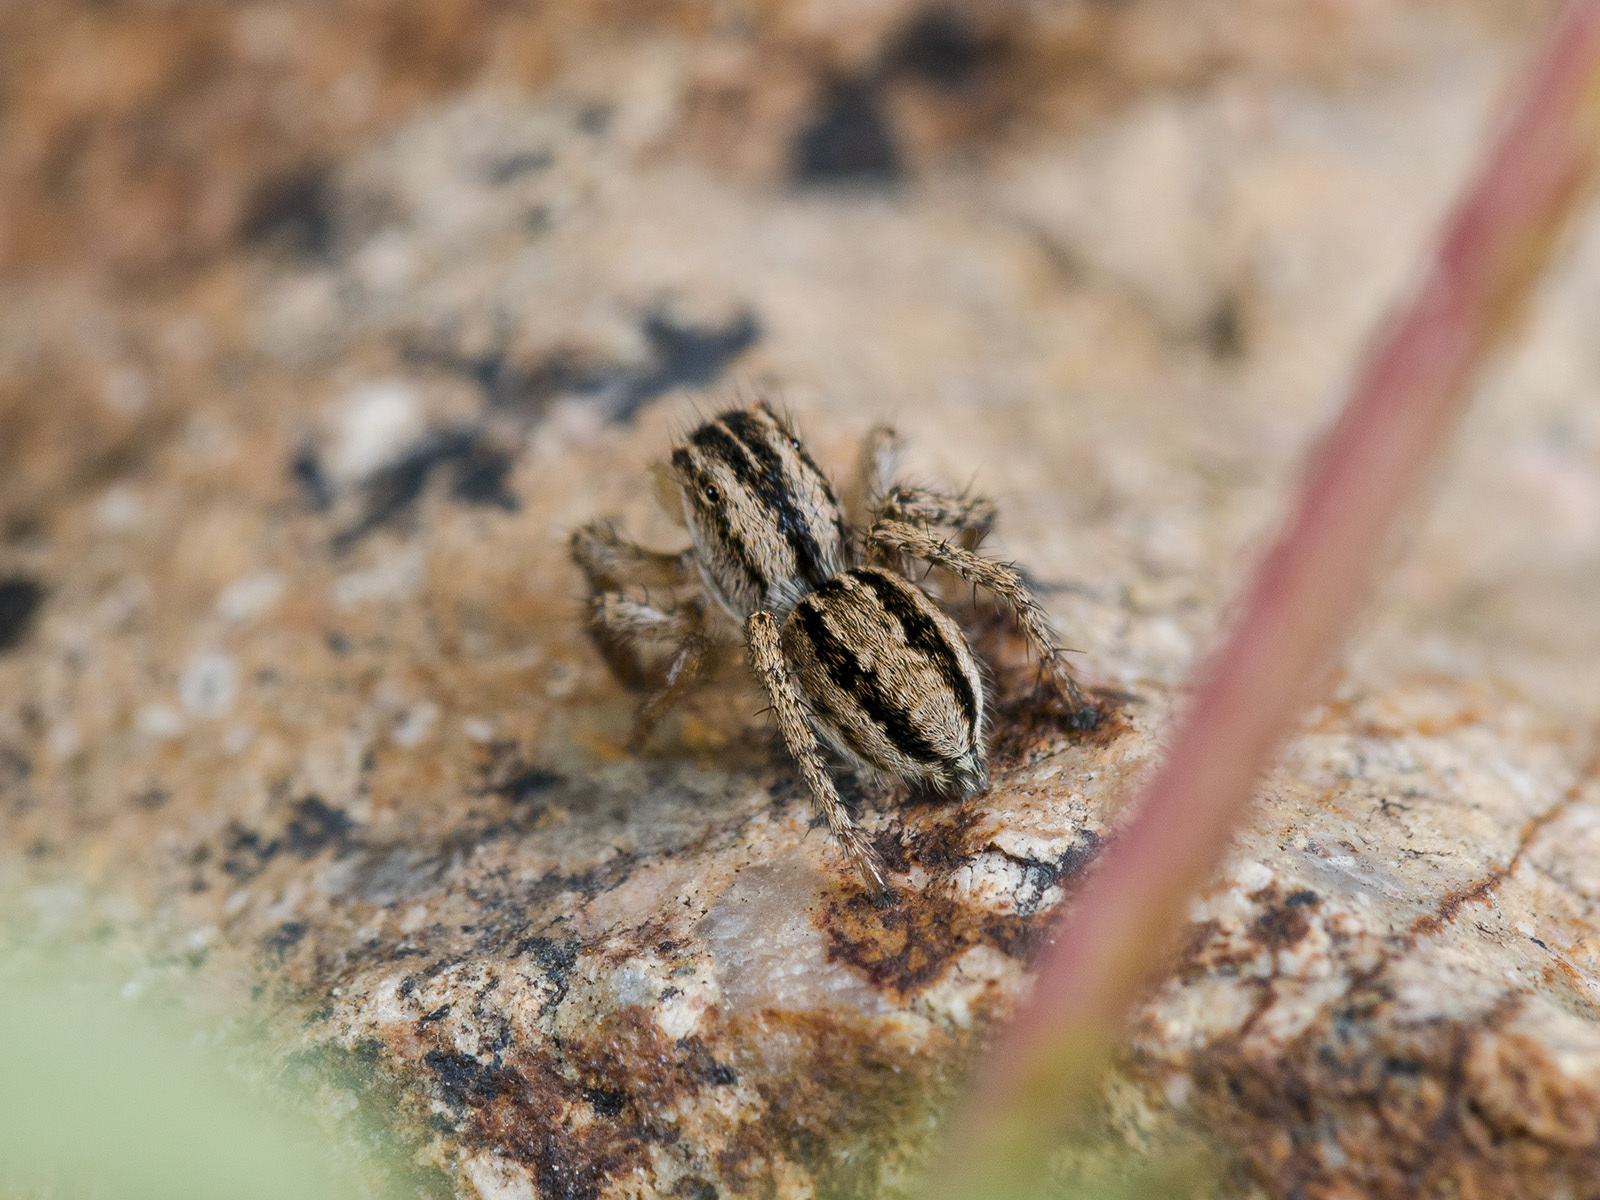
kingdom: Animalia
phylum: Arthropoda
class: Arachnida
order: Araneae
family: Salticidae
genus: Aelurillus
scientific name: Aelurillus m-nigrum
